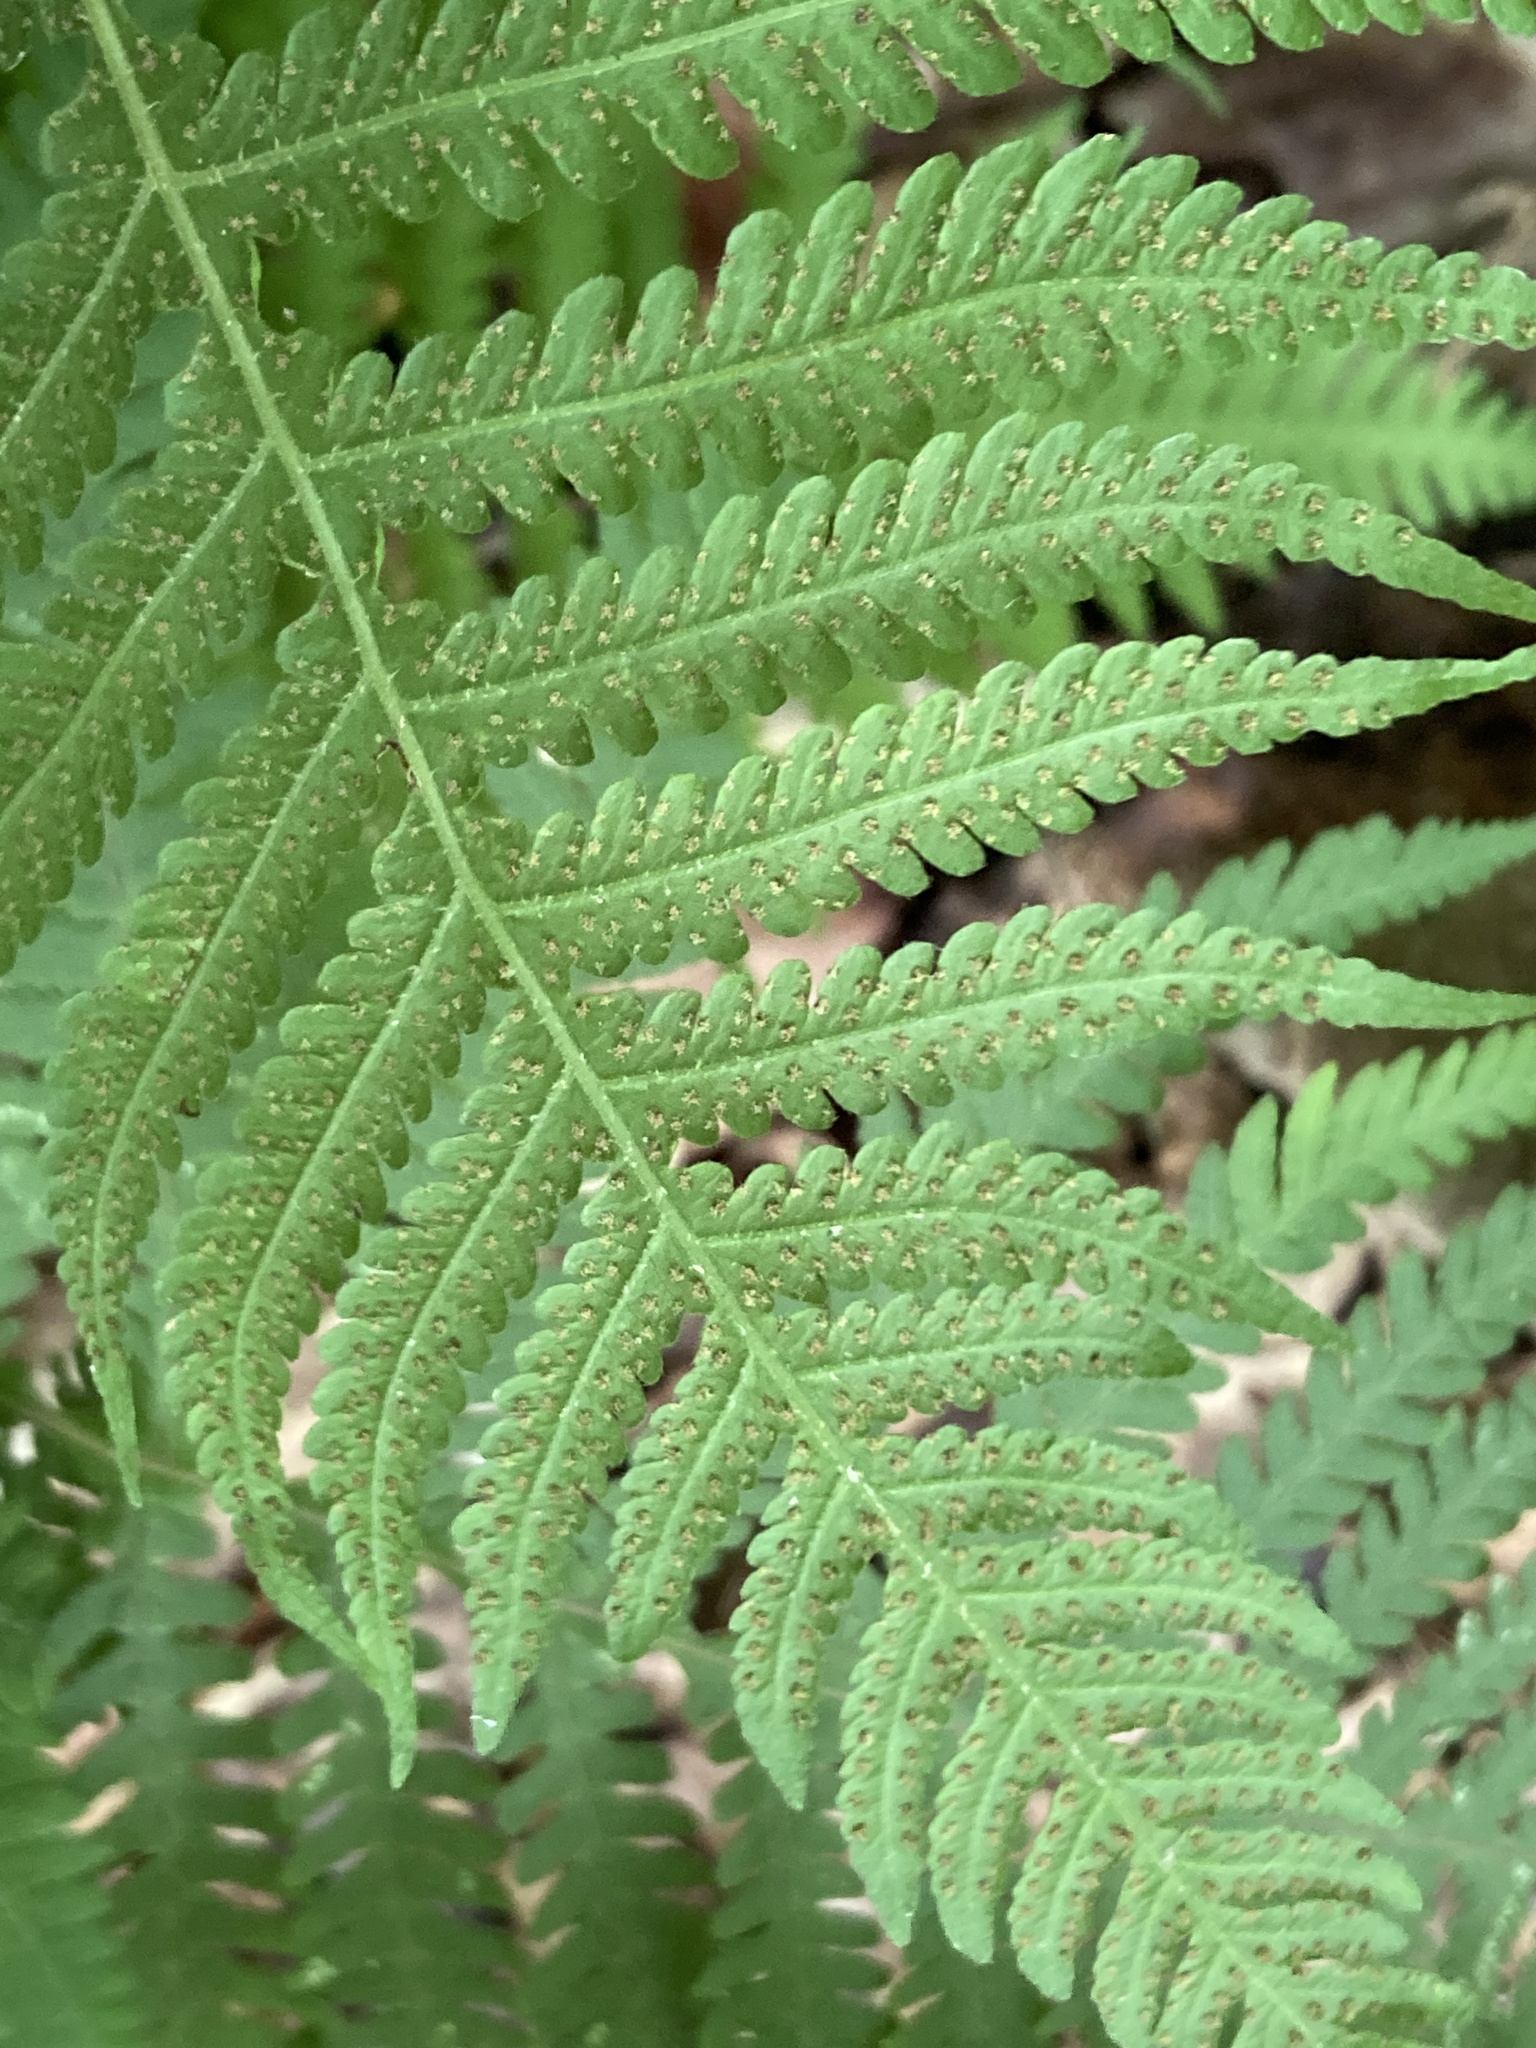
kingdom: Plantae
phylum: Tracheophyta
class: Polypodiopsida
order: Polypodiales
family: Thelypteridaceae
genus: Phegopteris
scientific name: Phegopteris hexagonoptera
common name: Broad beech fern
